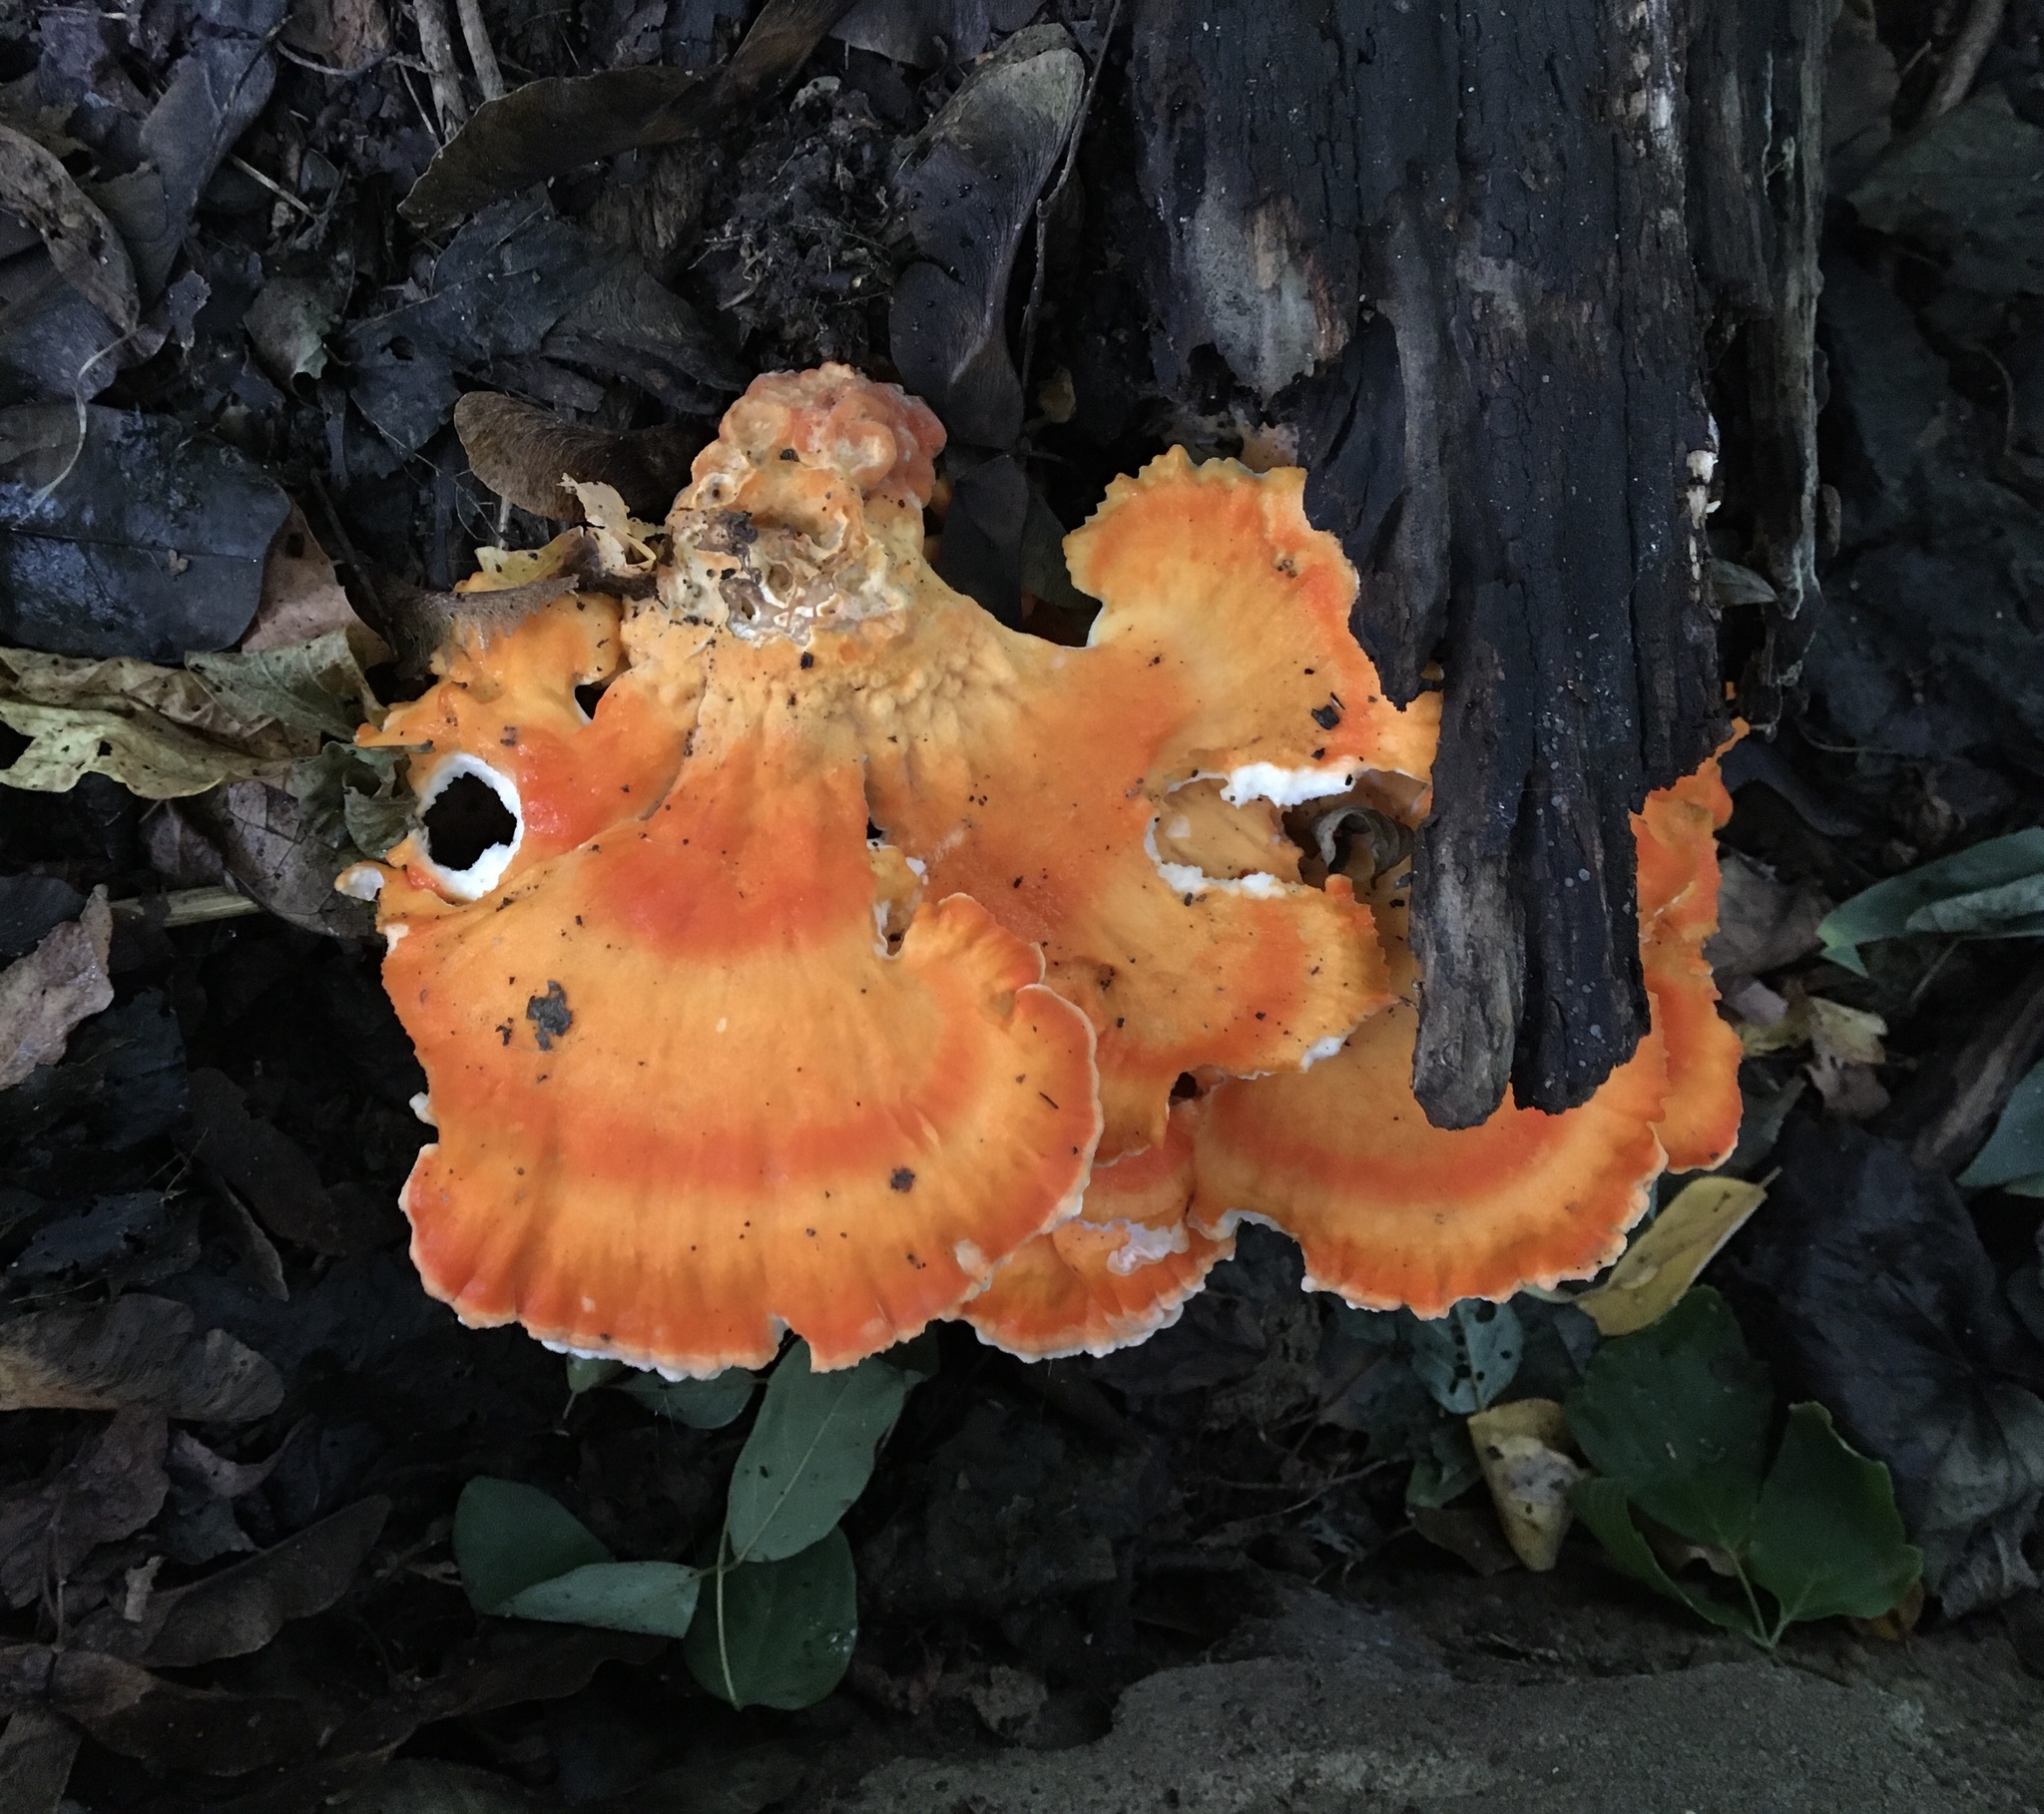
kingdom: Fungi
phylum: Basidiomycota
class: Agaricomycetes
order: Polyporales
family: Laetiporaceae
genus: Laetiporus
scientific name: Laetiporus sulphureus
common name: Chicken of the woods
